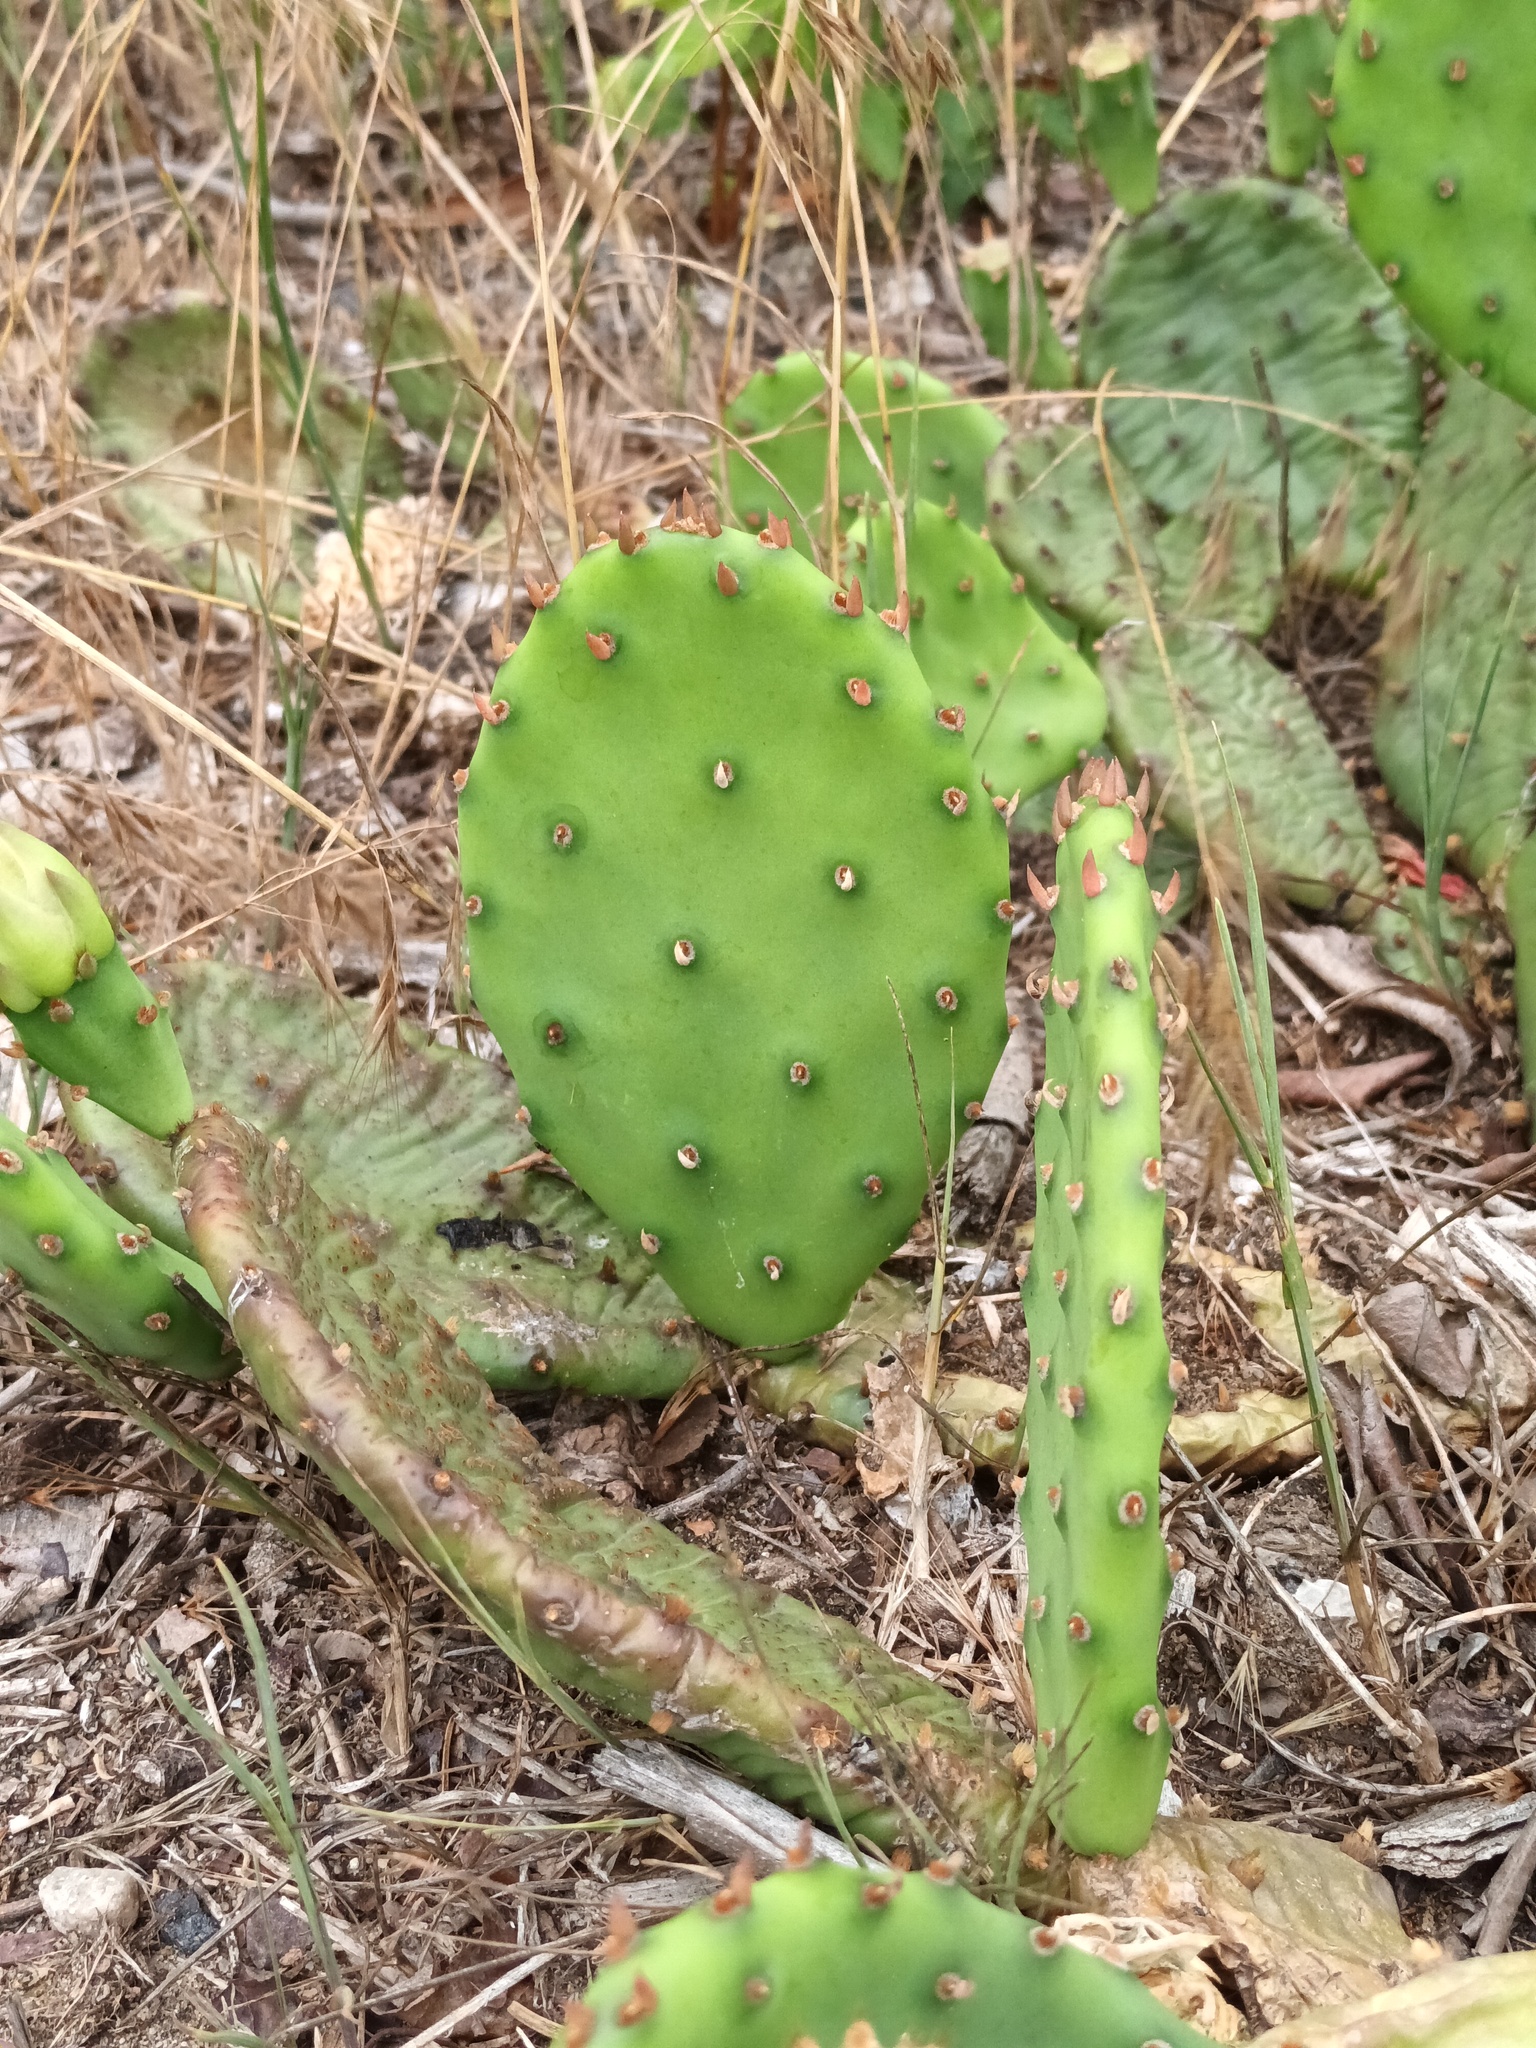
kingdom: Plantae
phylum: Tracheophyta
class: Magnoliopsida
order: Caryophyllales
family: Cactaceae
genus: Opuntia
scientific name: Opuntia humifusa
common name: Eastern prickly-pear
